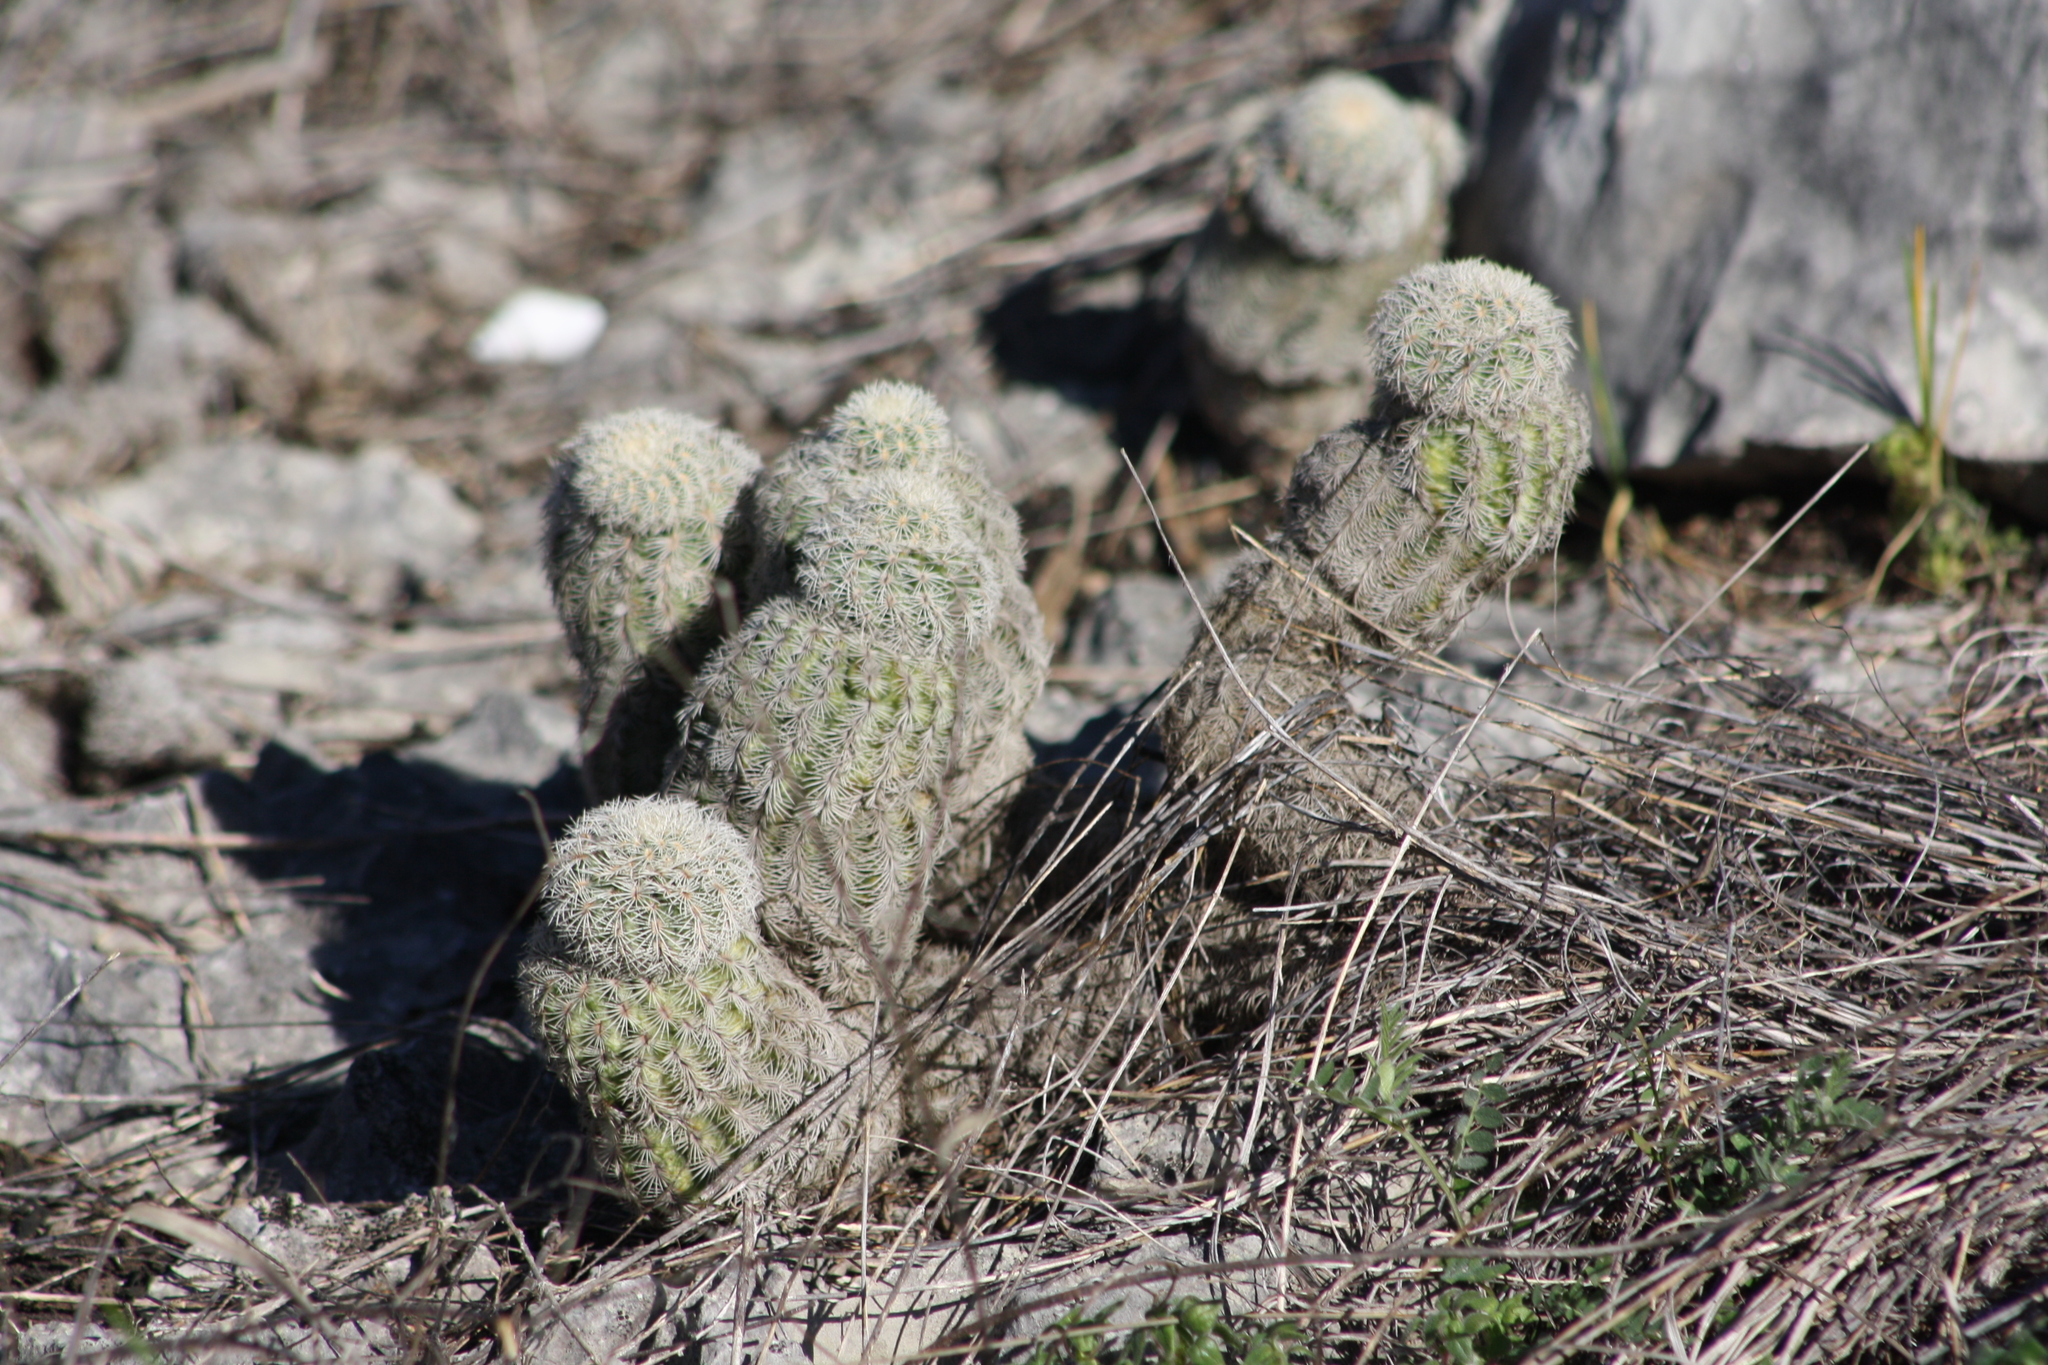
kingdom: Plantae
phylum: Tracheophyta
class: Magnoliopsida
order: Caryophyllales
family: Cactaceae
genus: Echinocereus
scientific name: Echinocereus reichenbachii
